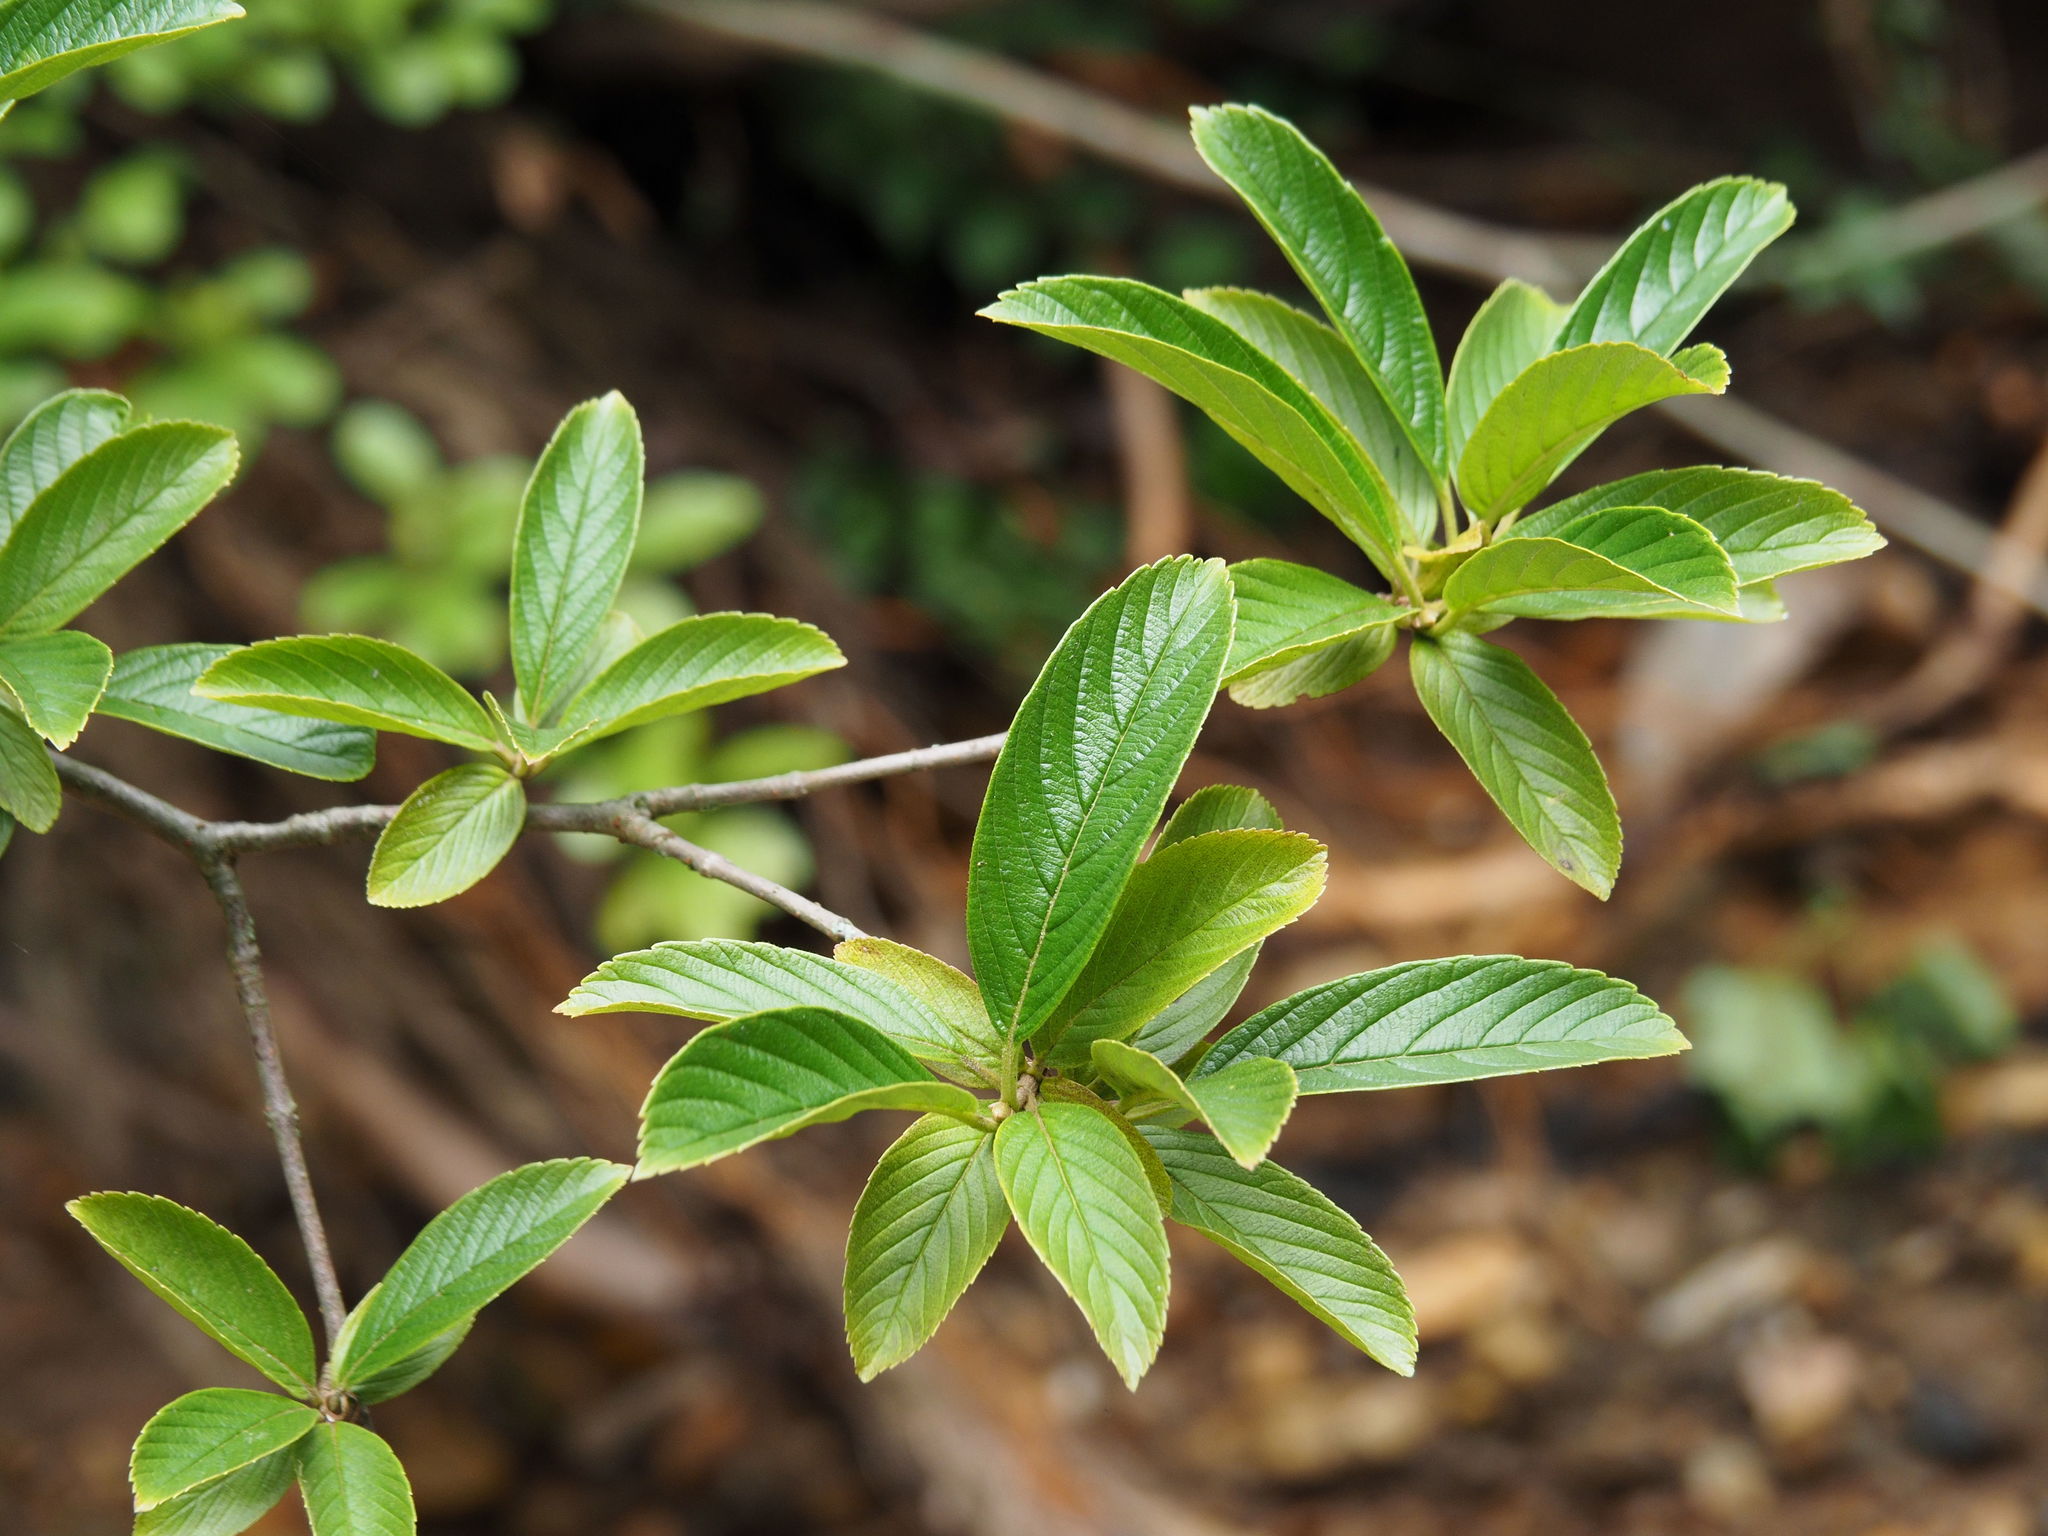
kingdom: Plantae
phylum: Tracheophyta
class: Magnoliopsida
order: Dipsacales
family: Viburnaceae
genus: Viburnum
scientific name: Viburnum sieboldii
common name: Siebold's arrowwood
